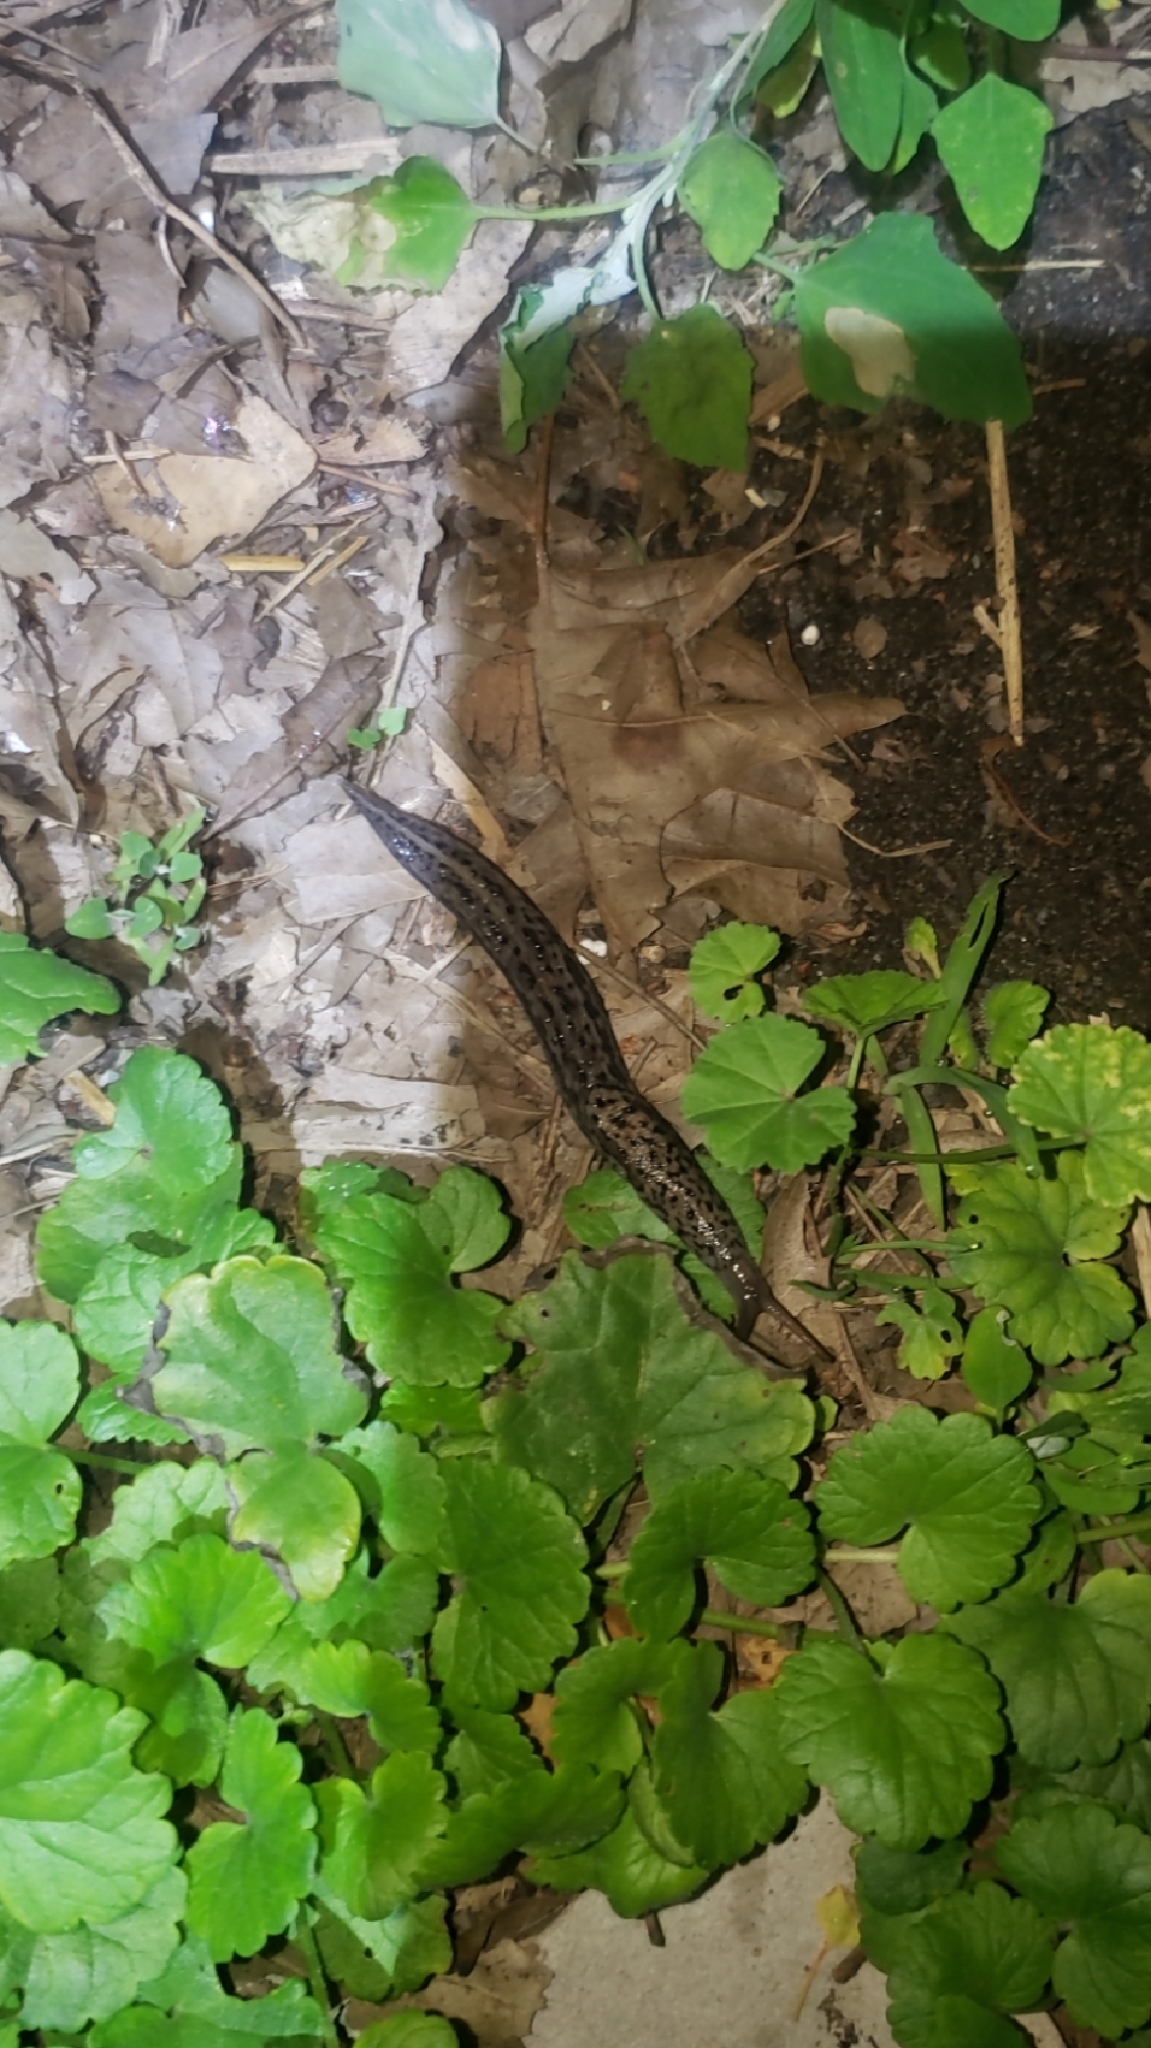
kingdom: Animalia
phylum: Mollusca
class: Gastropoda
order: Stylommatophora
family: Limacidae
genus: Limax
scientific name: Limax maximus
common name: Great grey slug
